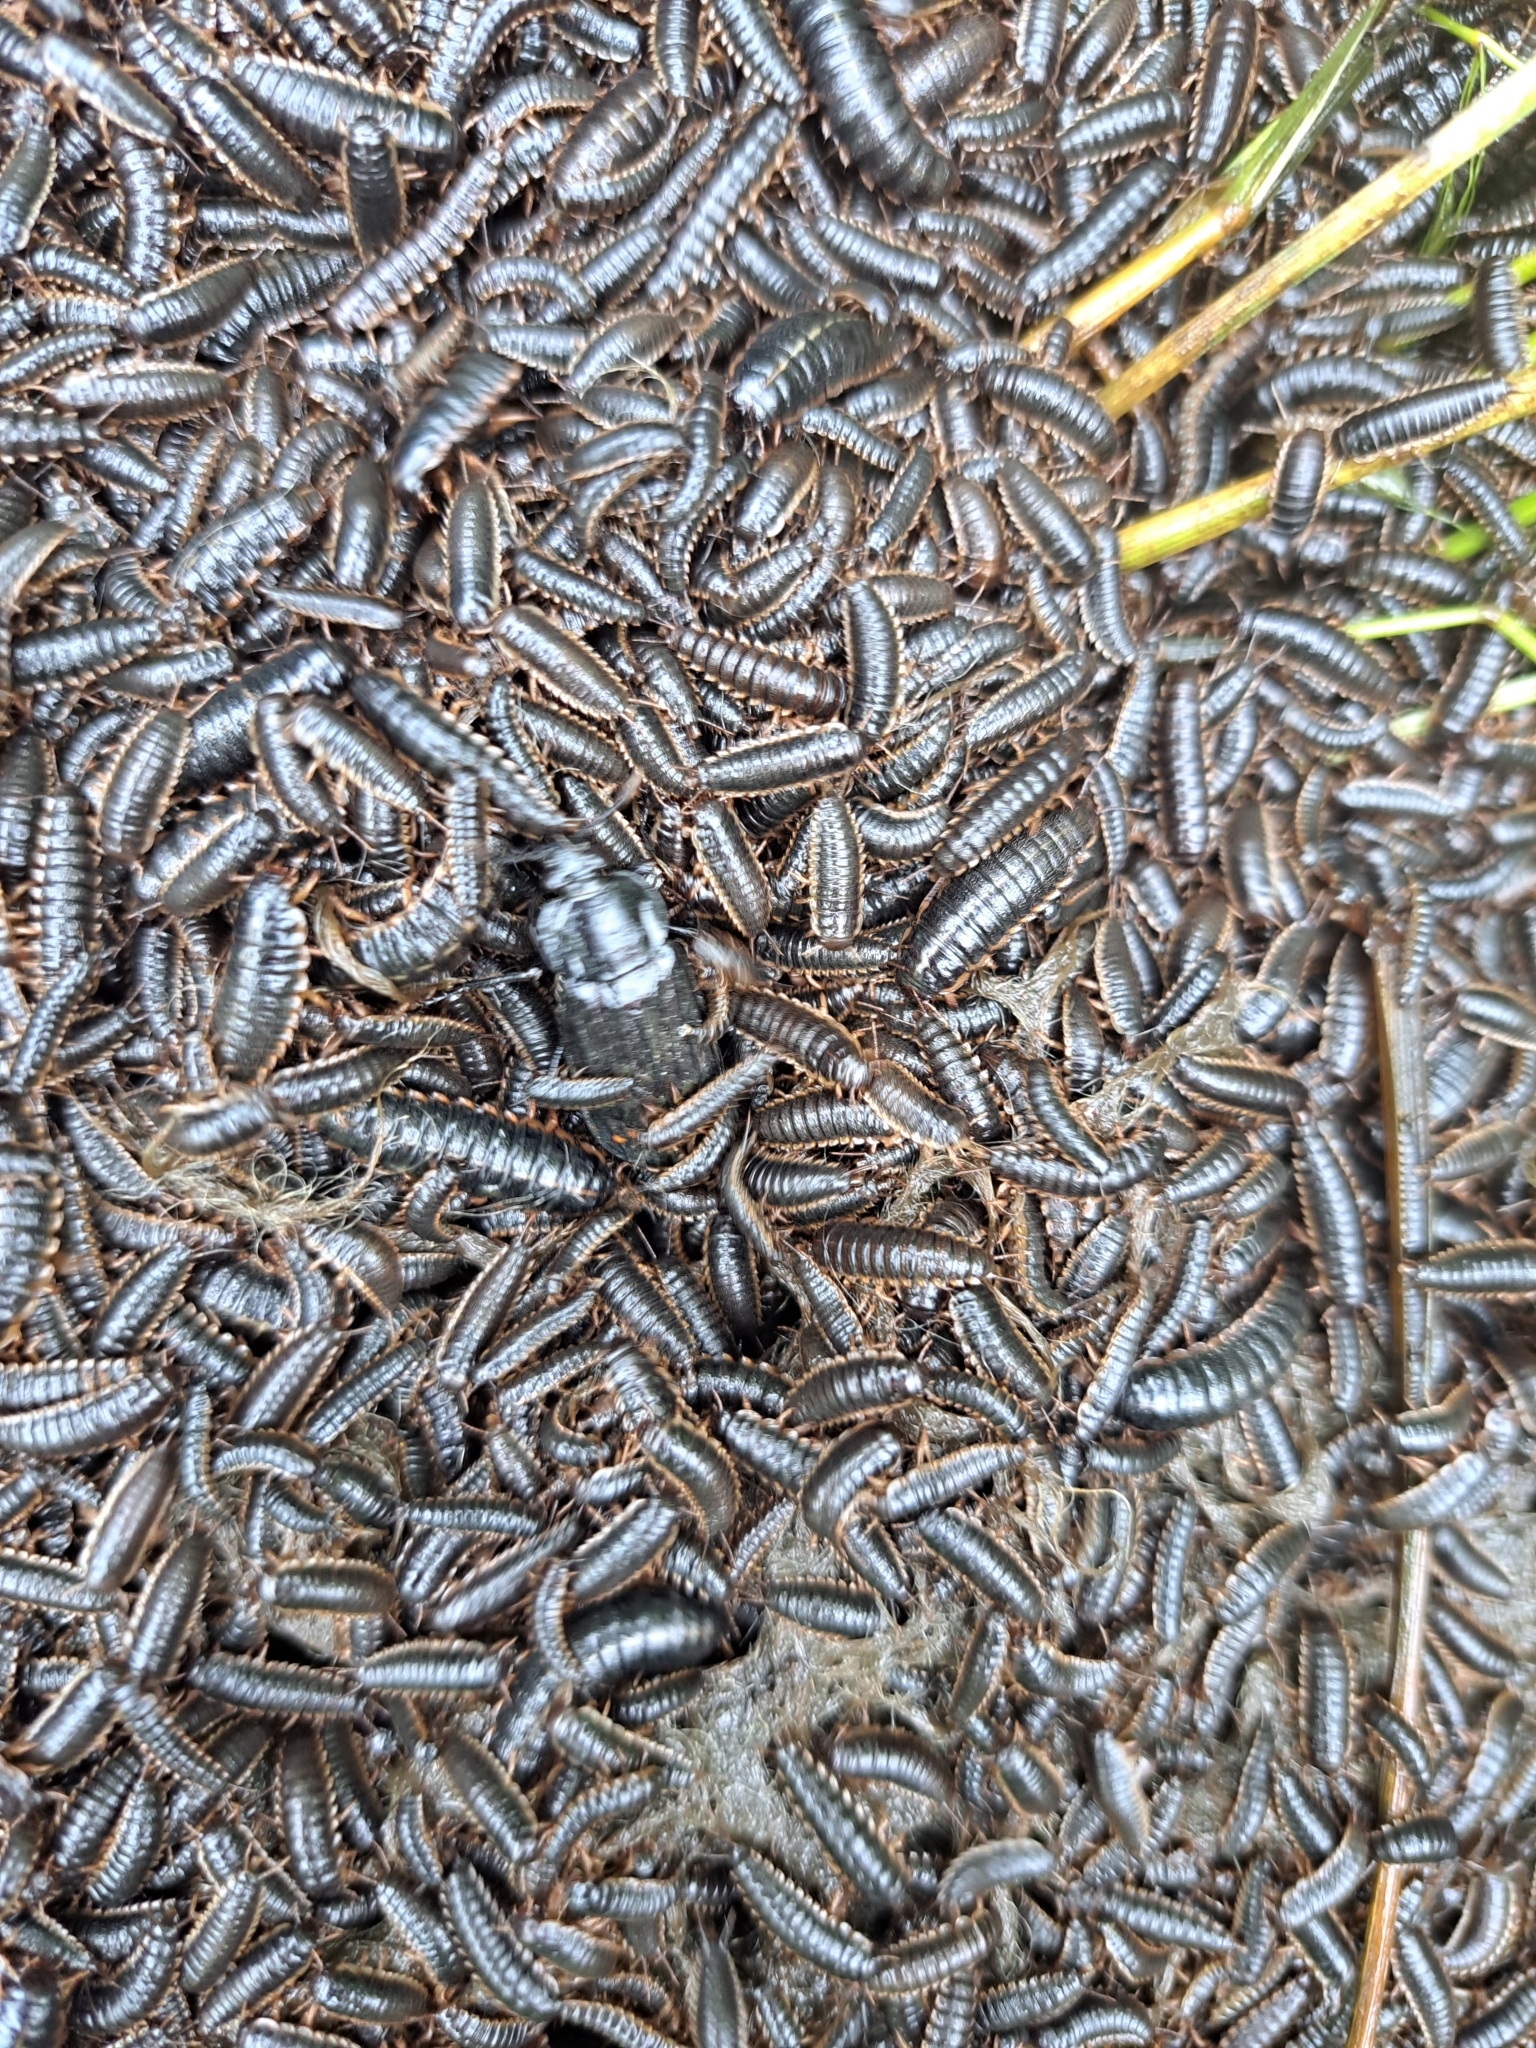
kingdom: Animalia
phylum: Arthropoda
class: Insecta
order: Coleoptera
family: Staphylinidae
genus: Necrodes
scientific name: Necrodes surinamensis
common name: Red-lined carrion beetle
